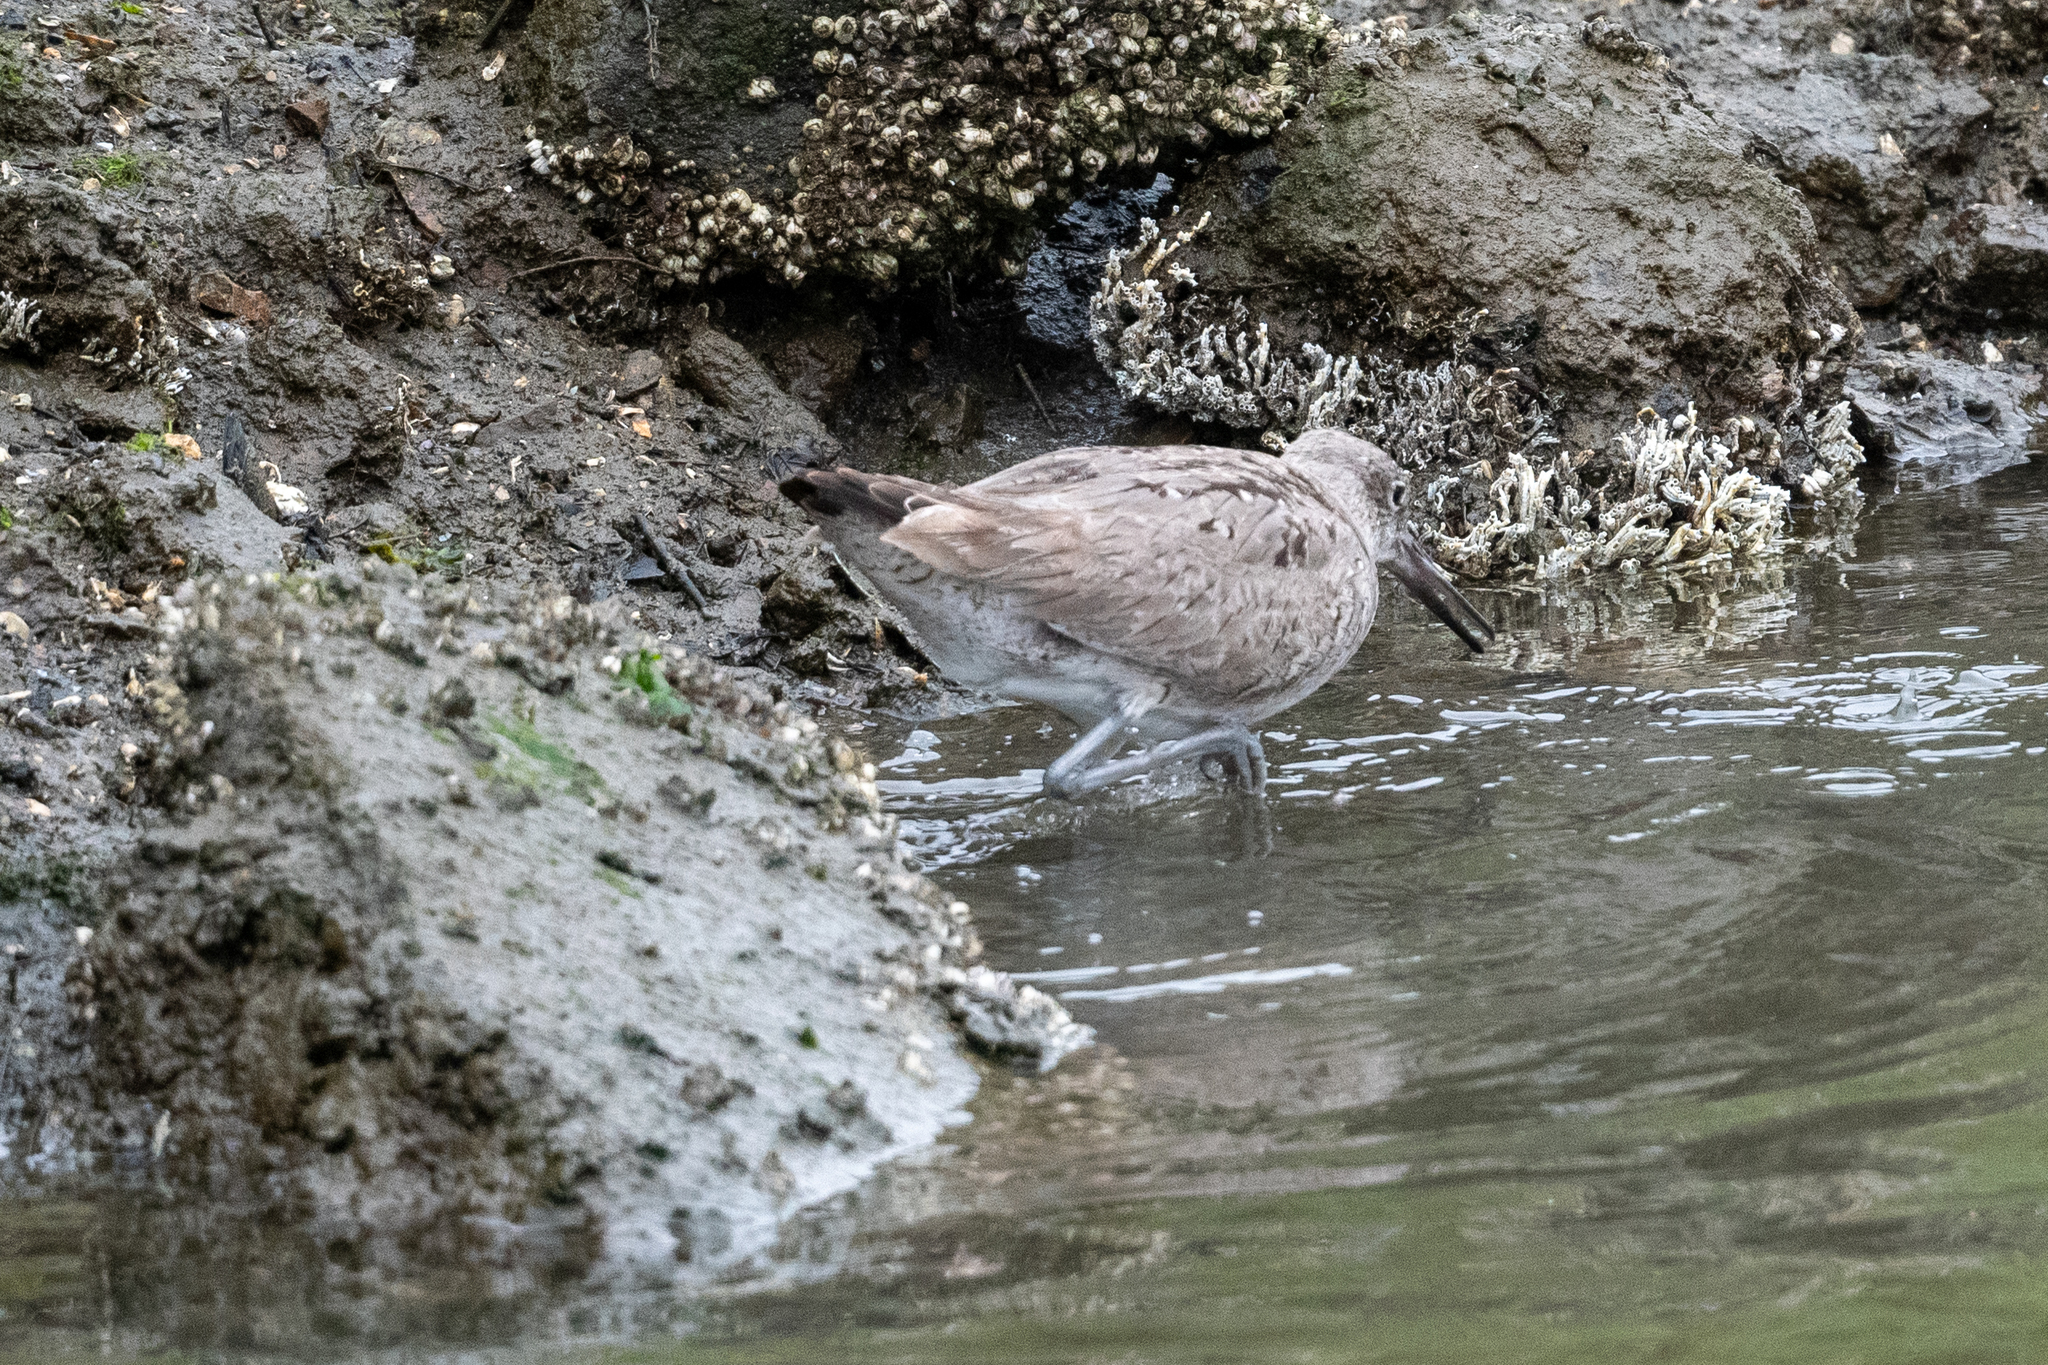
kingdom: Animalia
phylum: Chordata
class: Aves
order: Charadriiformes
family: Scolopacidae
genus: Tringa
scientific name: Tringa semipalmata
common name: Willet
